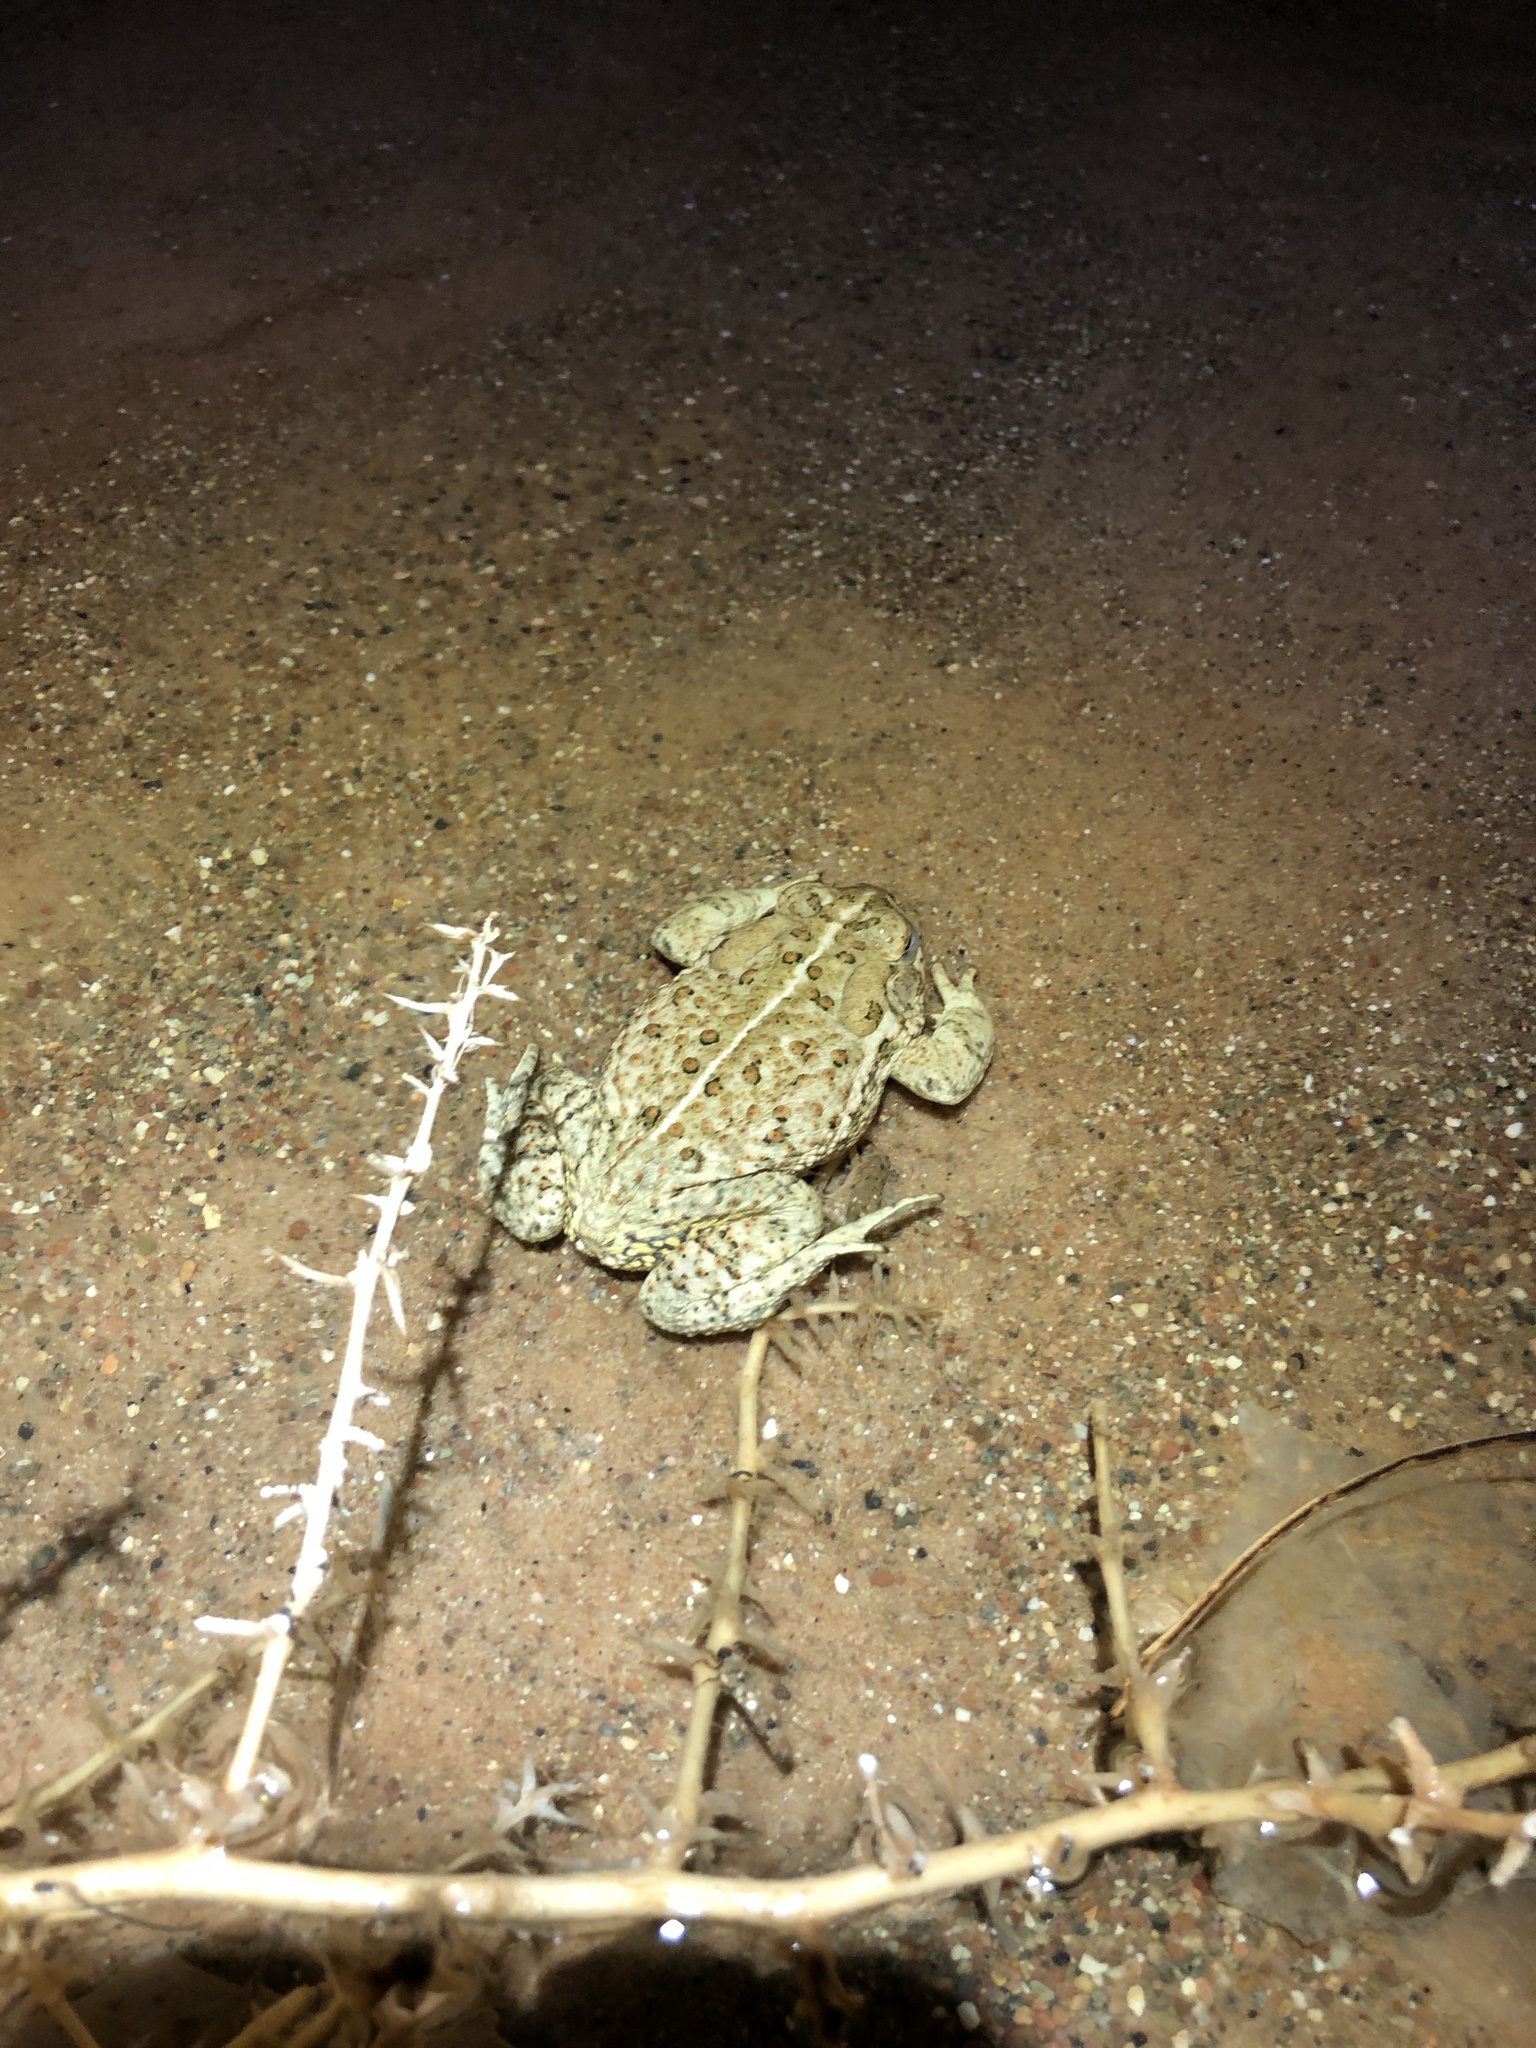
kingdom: Animalia
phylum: Chordata
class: Amphibia
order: Anura
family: Bufonidae
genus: Anaxyrus
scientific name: Anaxyrus woodhousii
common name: Woodhouse's toad
